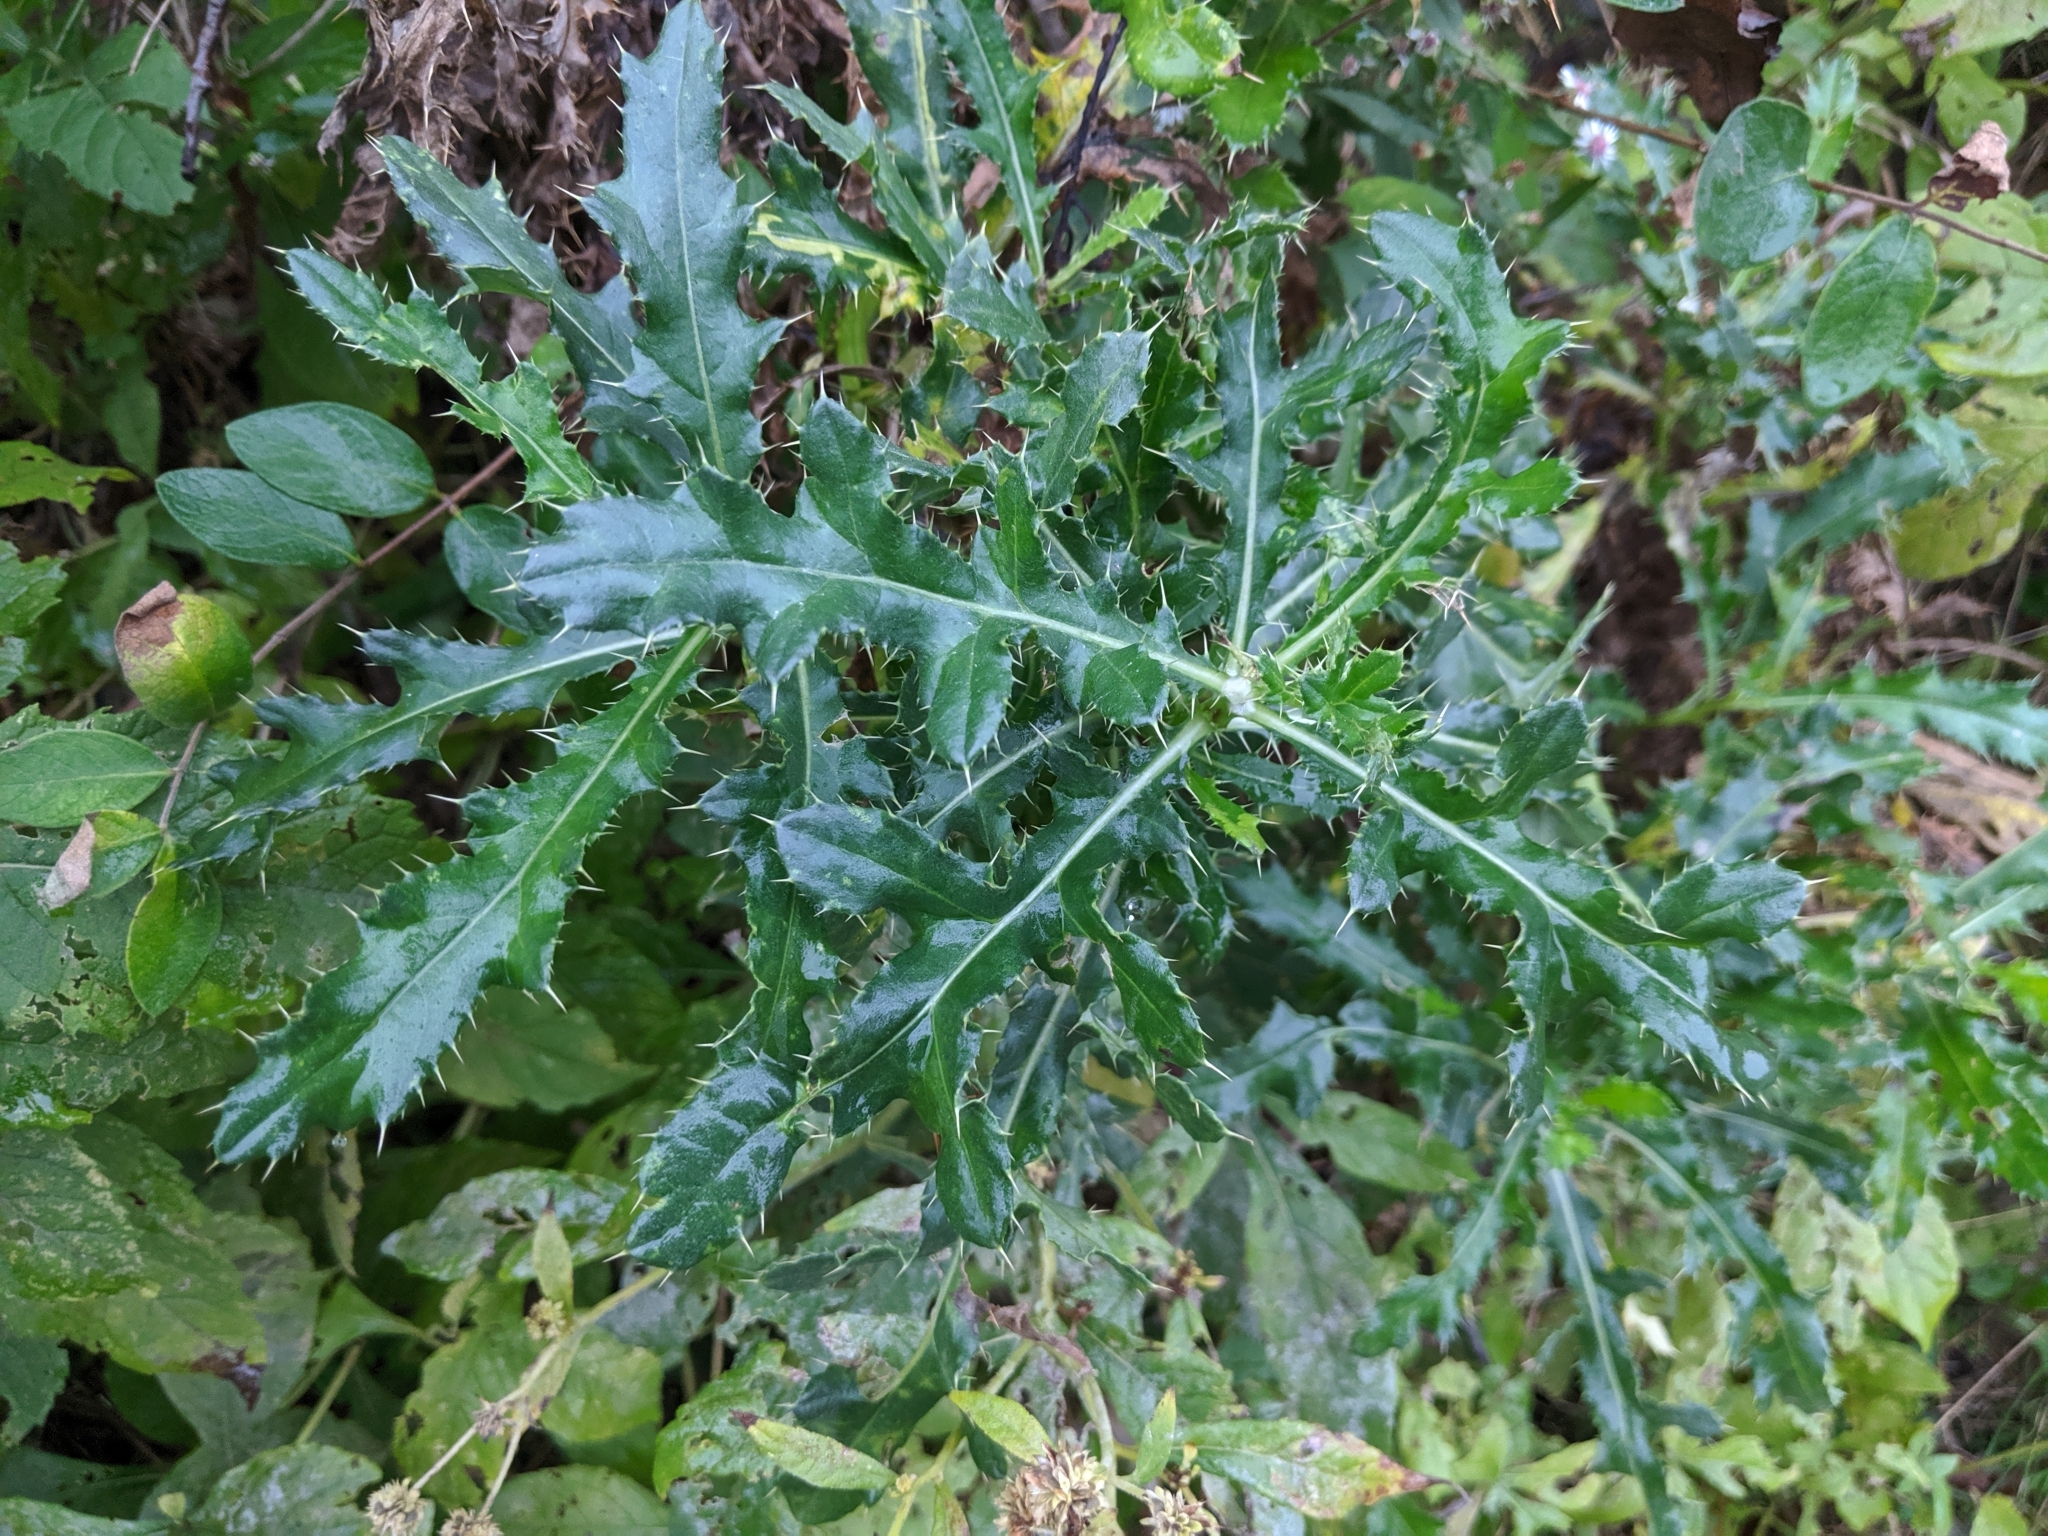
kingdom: Plantae
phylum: Tracheophyta
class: Magnoliopsida
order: Asterales
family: Asteraceae
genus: Cirsium
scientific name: Cirsium arvense
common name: Creeping thistle
